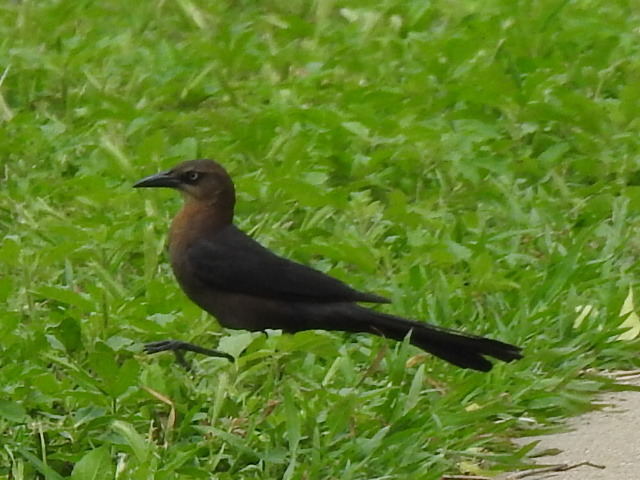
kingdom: Animalia
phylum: Chordata
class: Aves
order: Passeriformes
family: Icteridae
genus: Quiscalus
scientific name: Quiscalus mexicanus
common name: Great-tailed grackle
